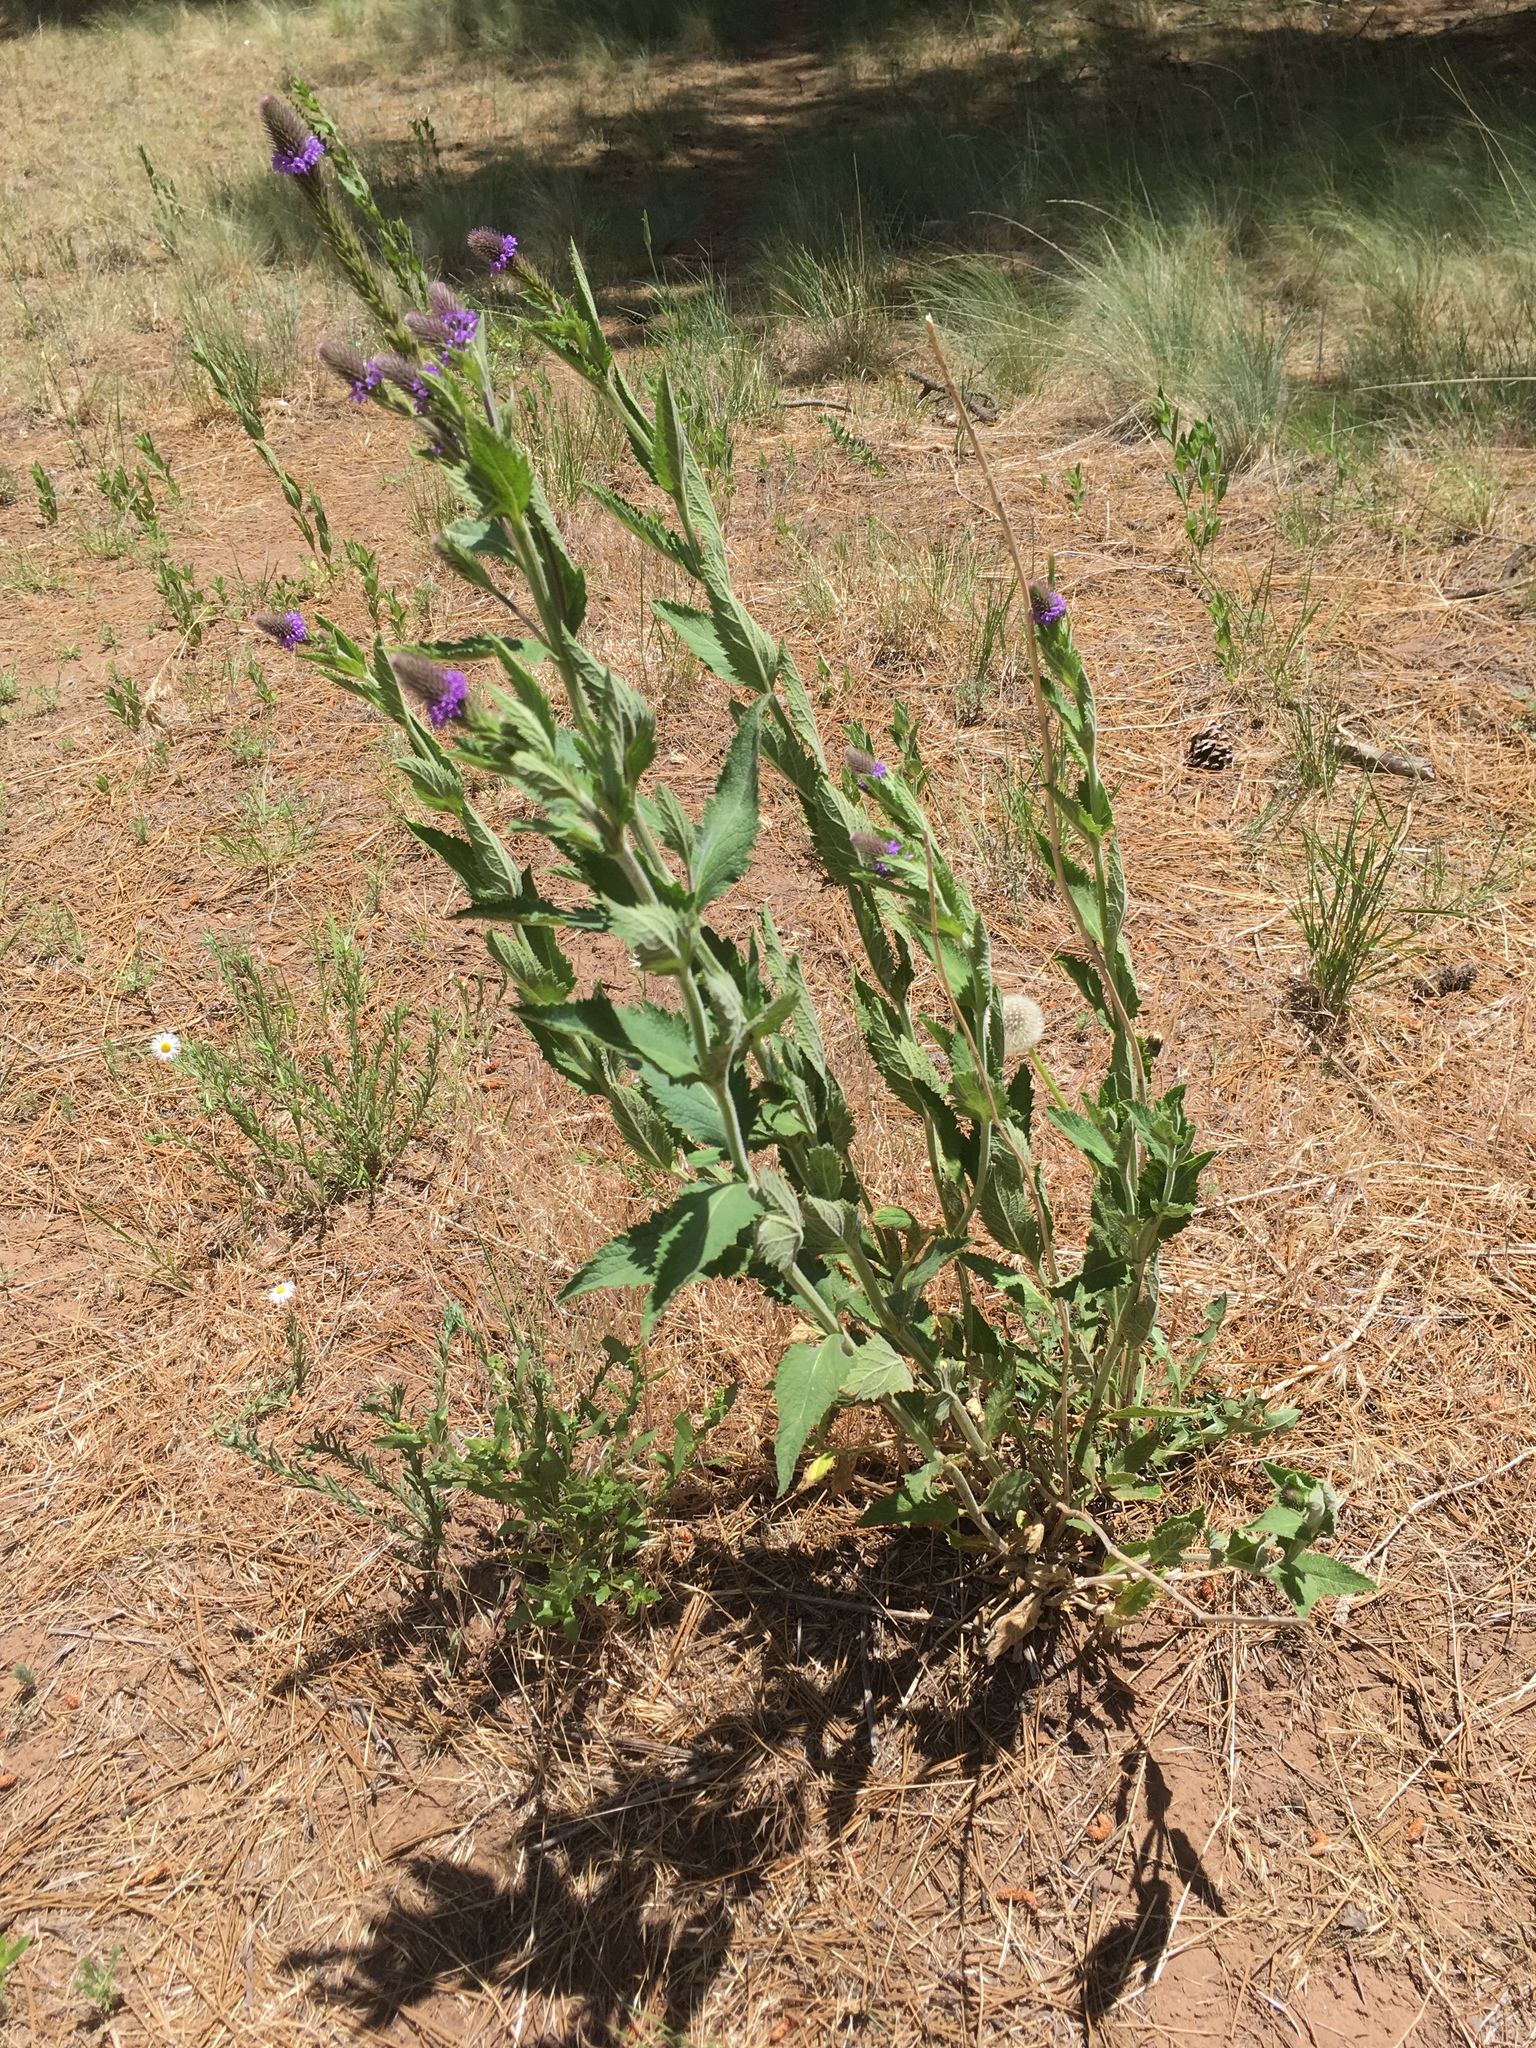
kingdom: Plantae
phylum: Tracheophyta
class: Magnoliopsida
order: Lamiales
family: Verbenaceae
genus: Verbena
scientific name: Verbena macdougalii
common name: New mexico vervain
